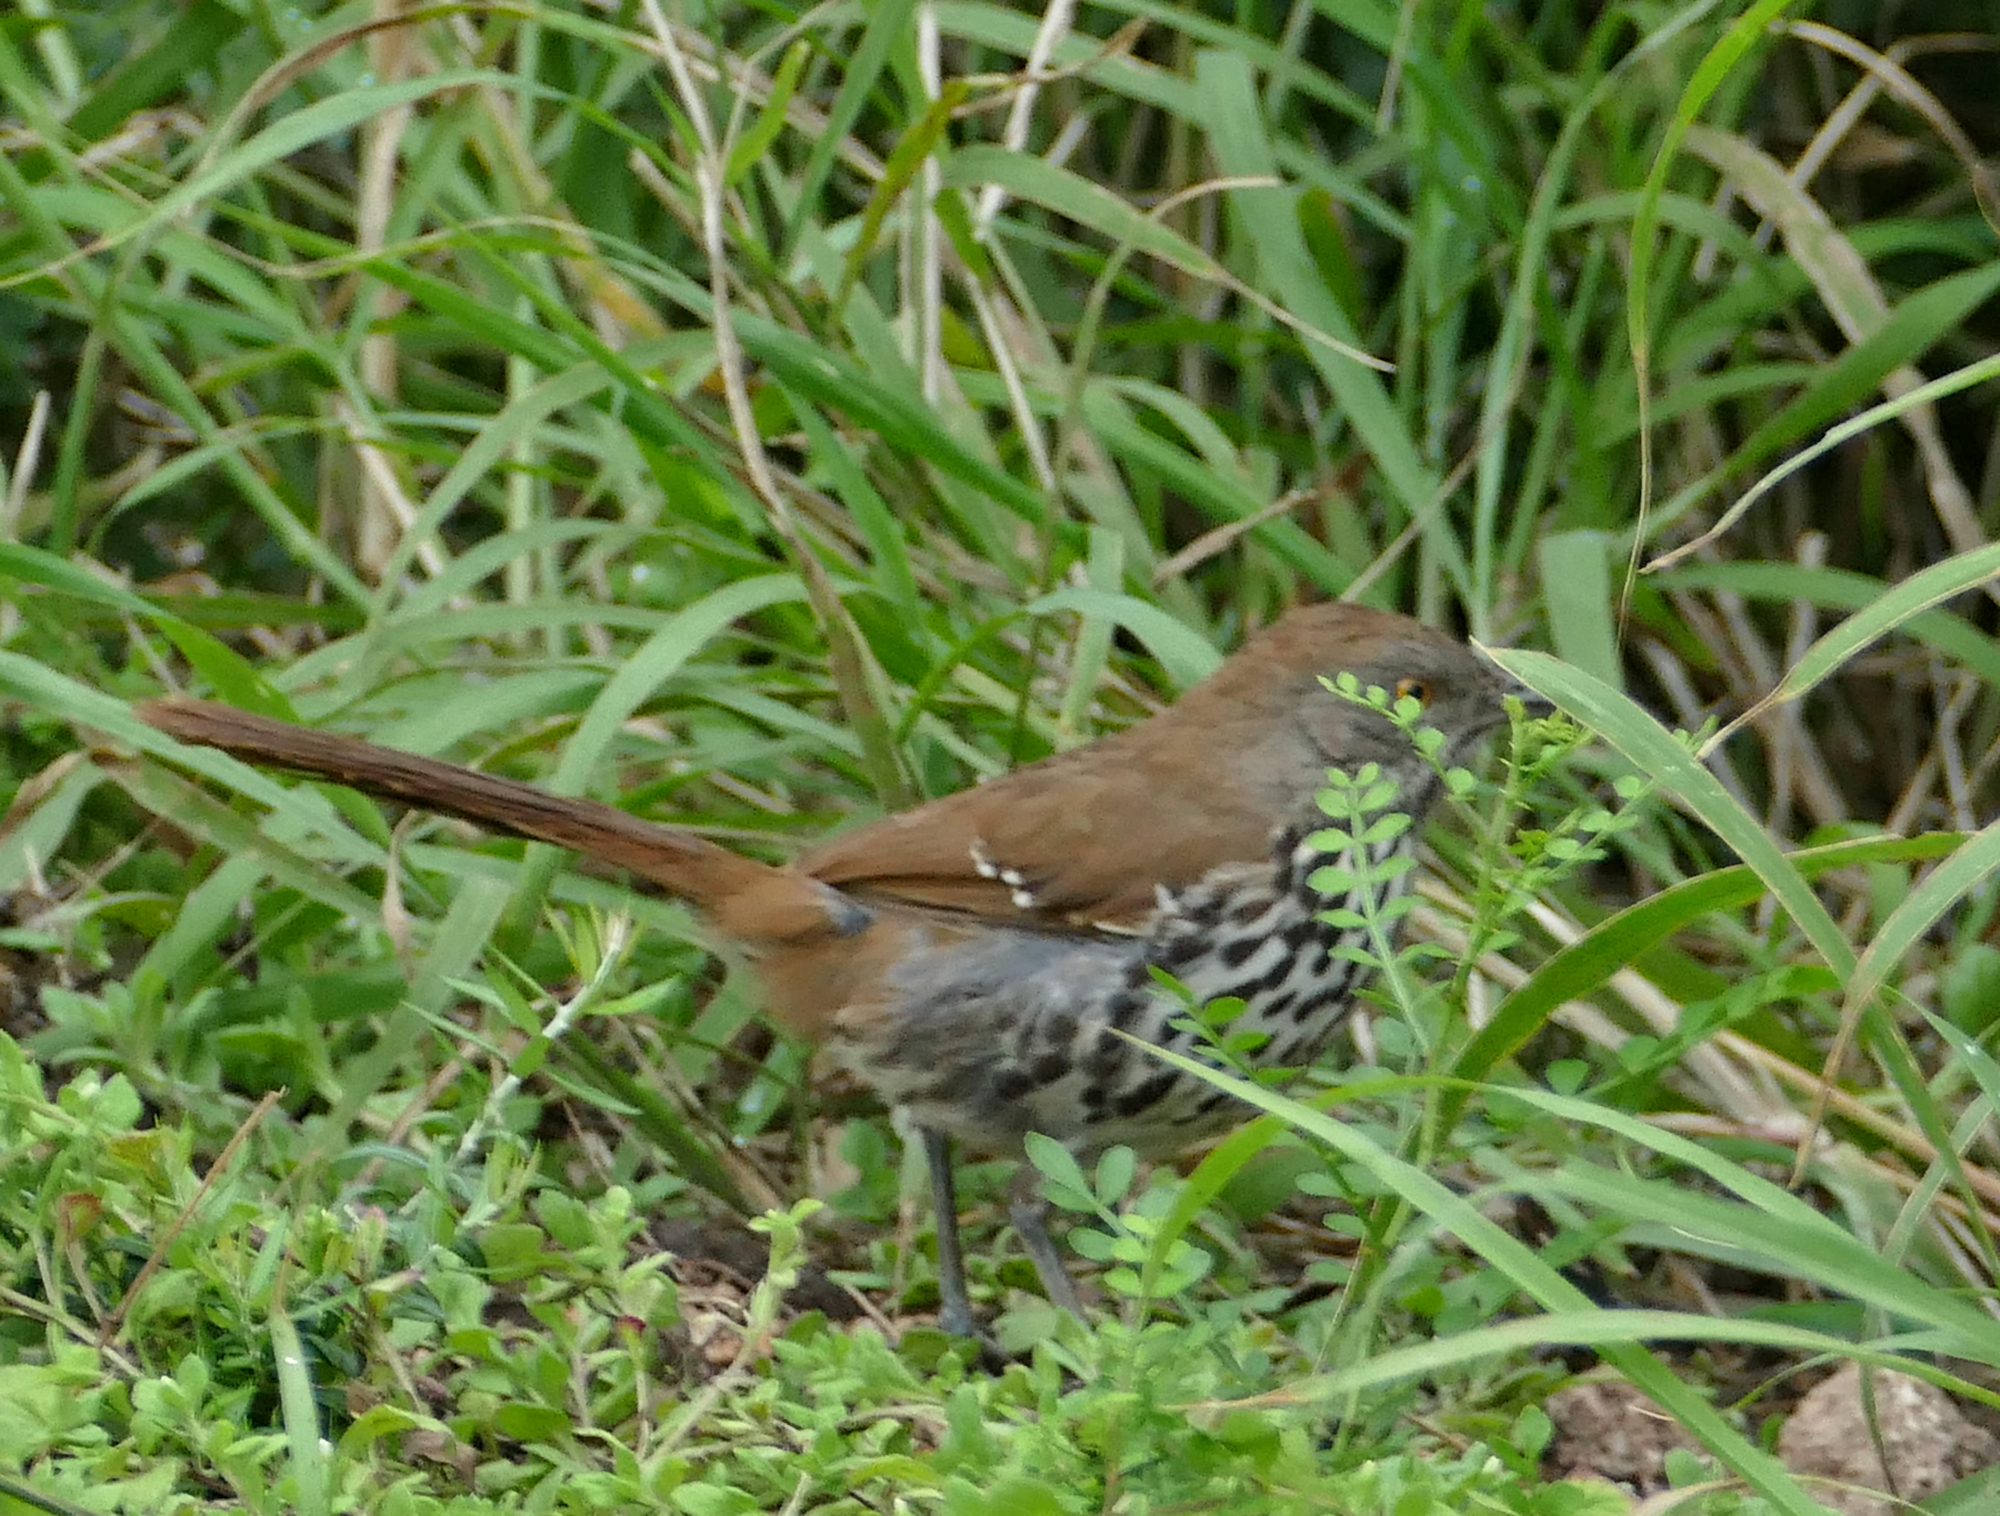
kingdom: Animalia
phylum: Chordata
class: Aves
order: Passeriformes
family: Mimidae
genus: Toxostoma
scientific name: Toxostoma longirostre
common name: Long-billed thrasher
